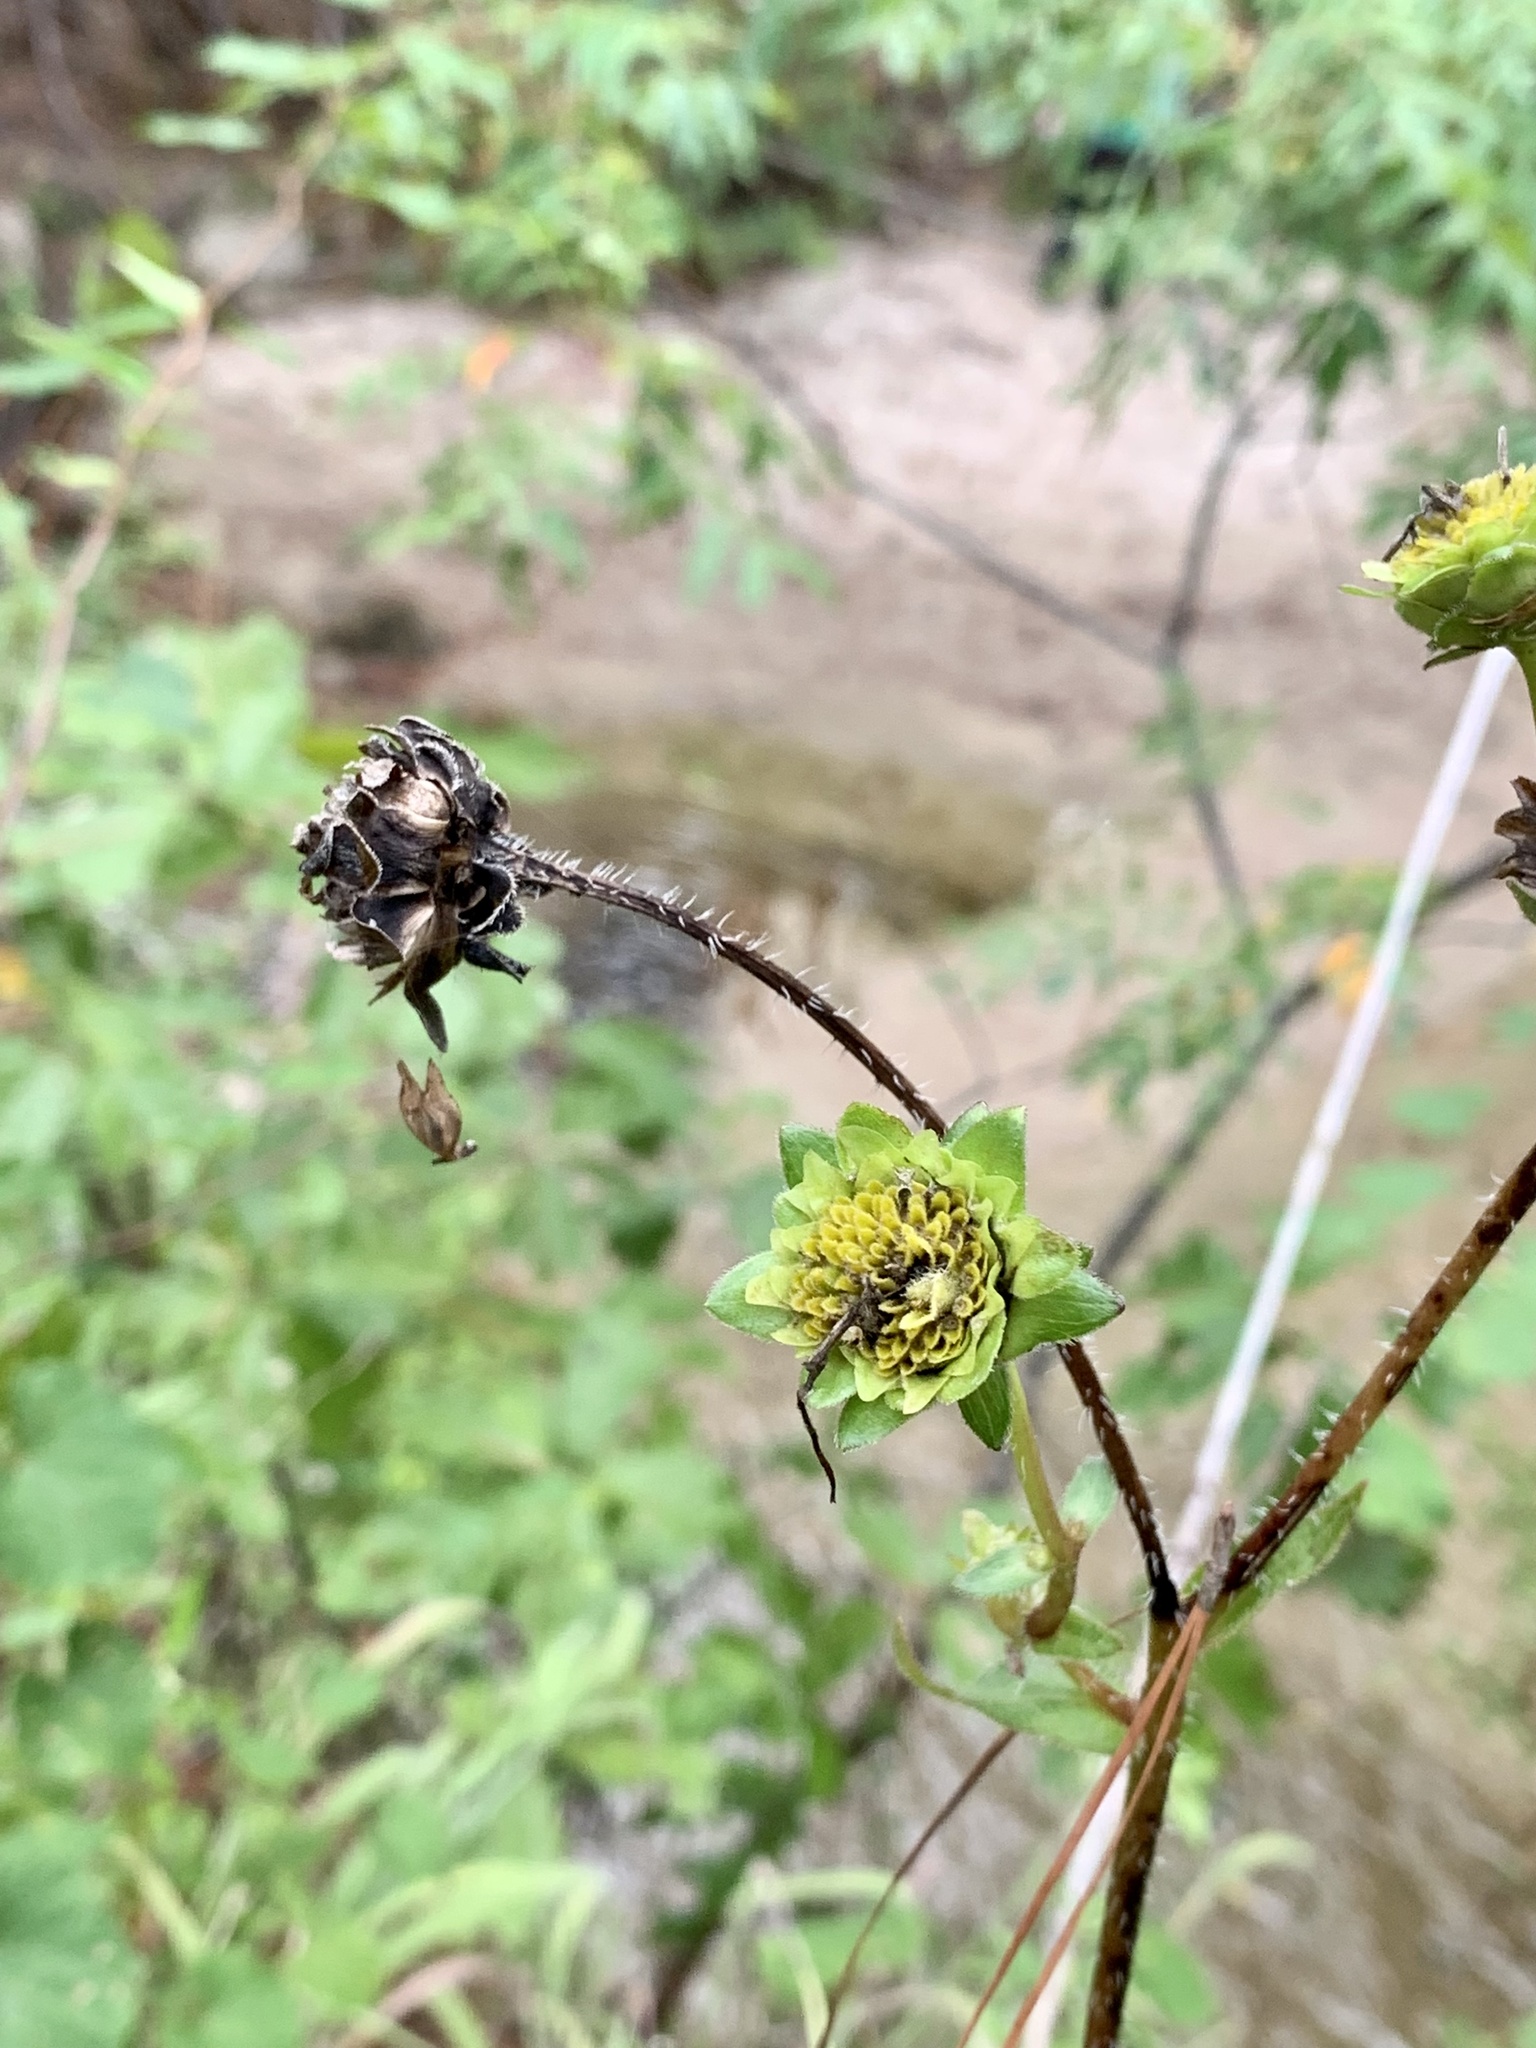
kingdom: Plantae
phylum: Tracheophyta
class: Magnoliopsida
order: Asterales
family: Asteraceae
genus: Silphium
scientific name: Silphium radula
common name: Roughleaf rosinweed
